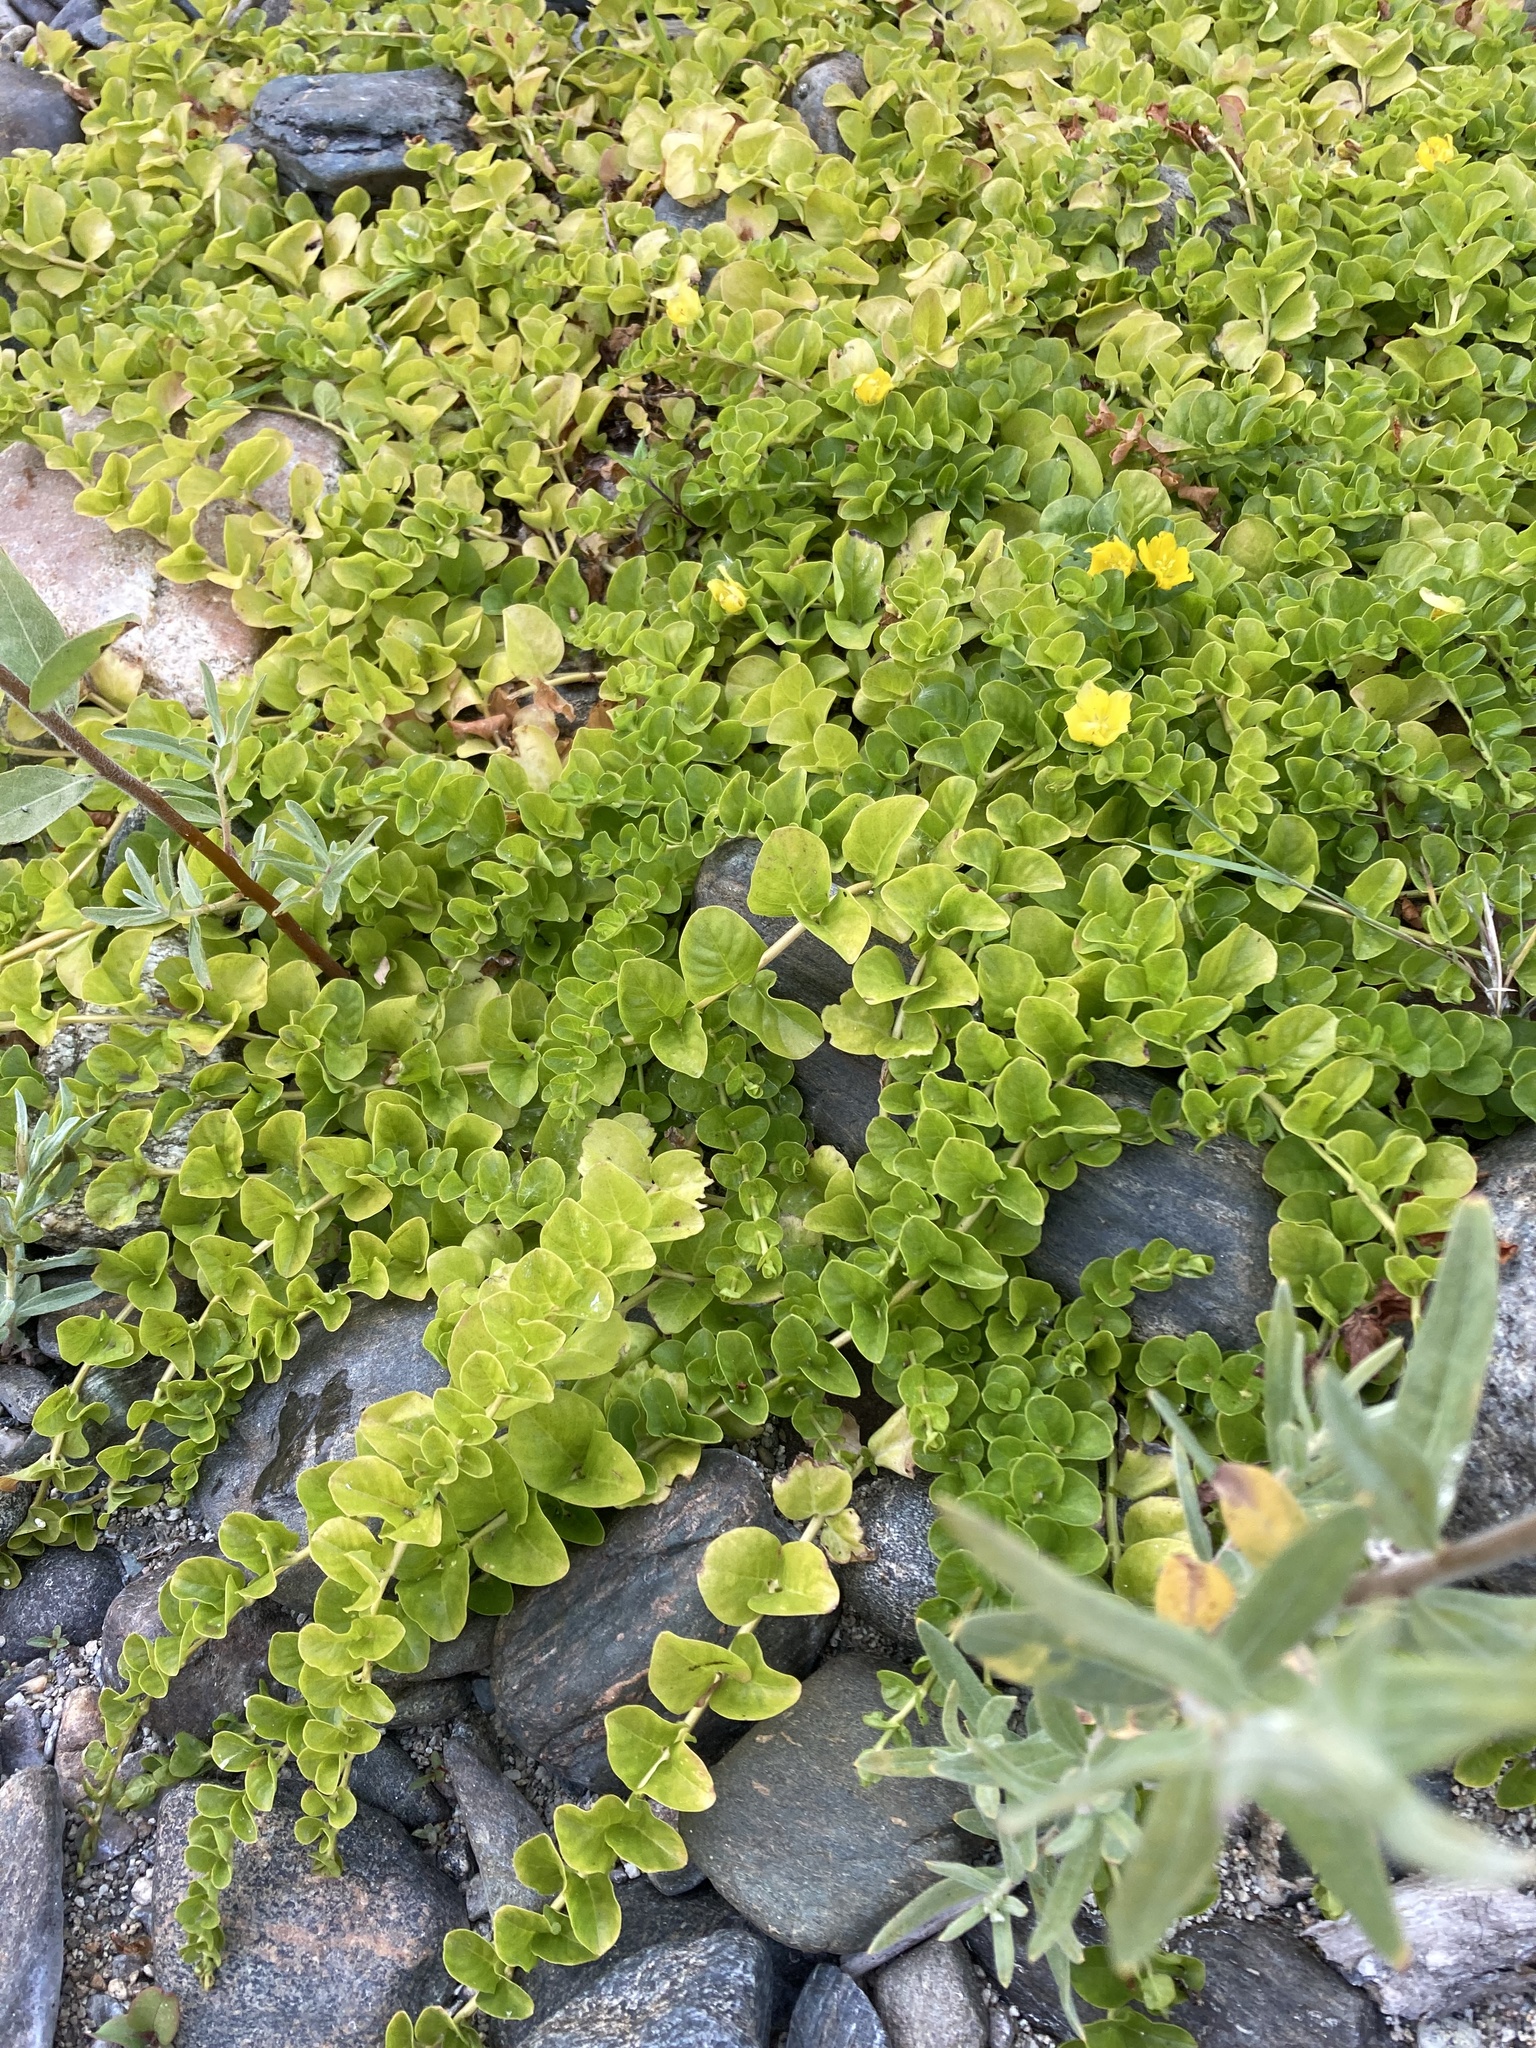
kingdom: Plantae
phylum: Tracheophyta
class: Magnoliopsida
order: Ericales
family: Primulaceae
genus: Lysimachia
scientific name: Lysimachia nummularia
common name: Moneywort
